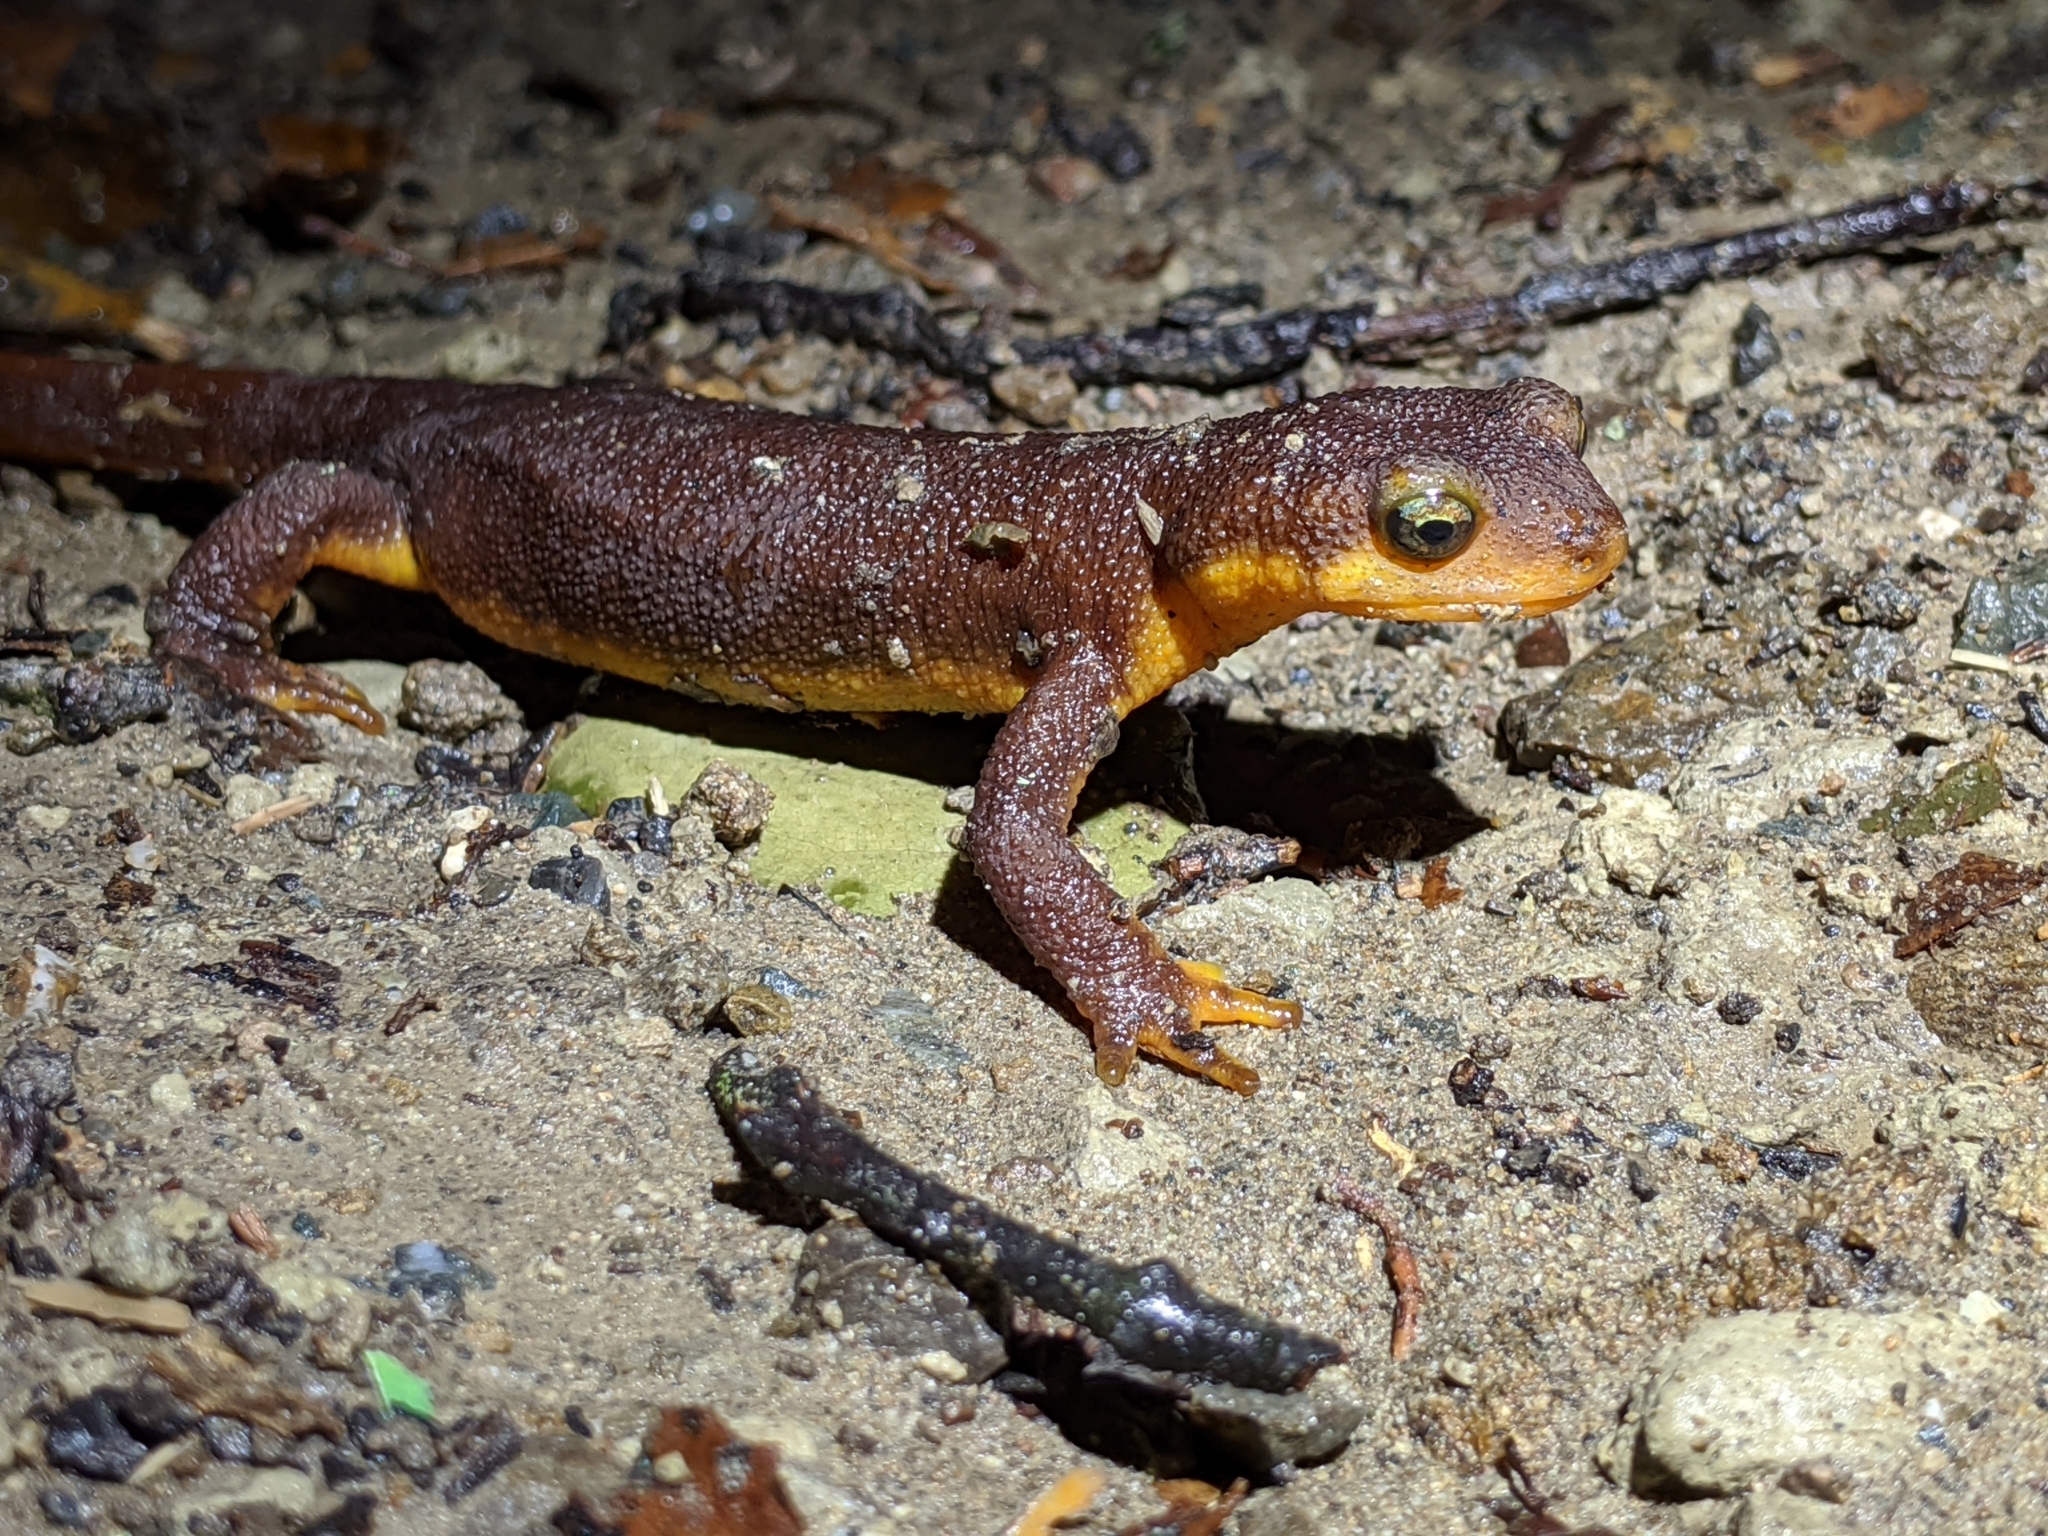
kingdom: Animalia
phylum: Chordata
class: Amphibia
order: Caudata
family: Salamandridae
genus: Taricha
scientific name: Taricha torosa
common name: California newt
